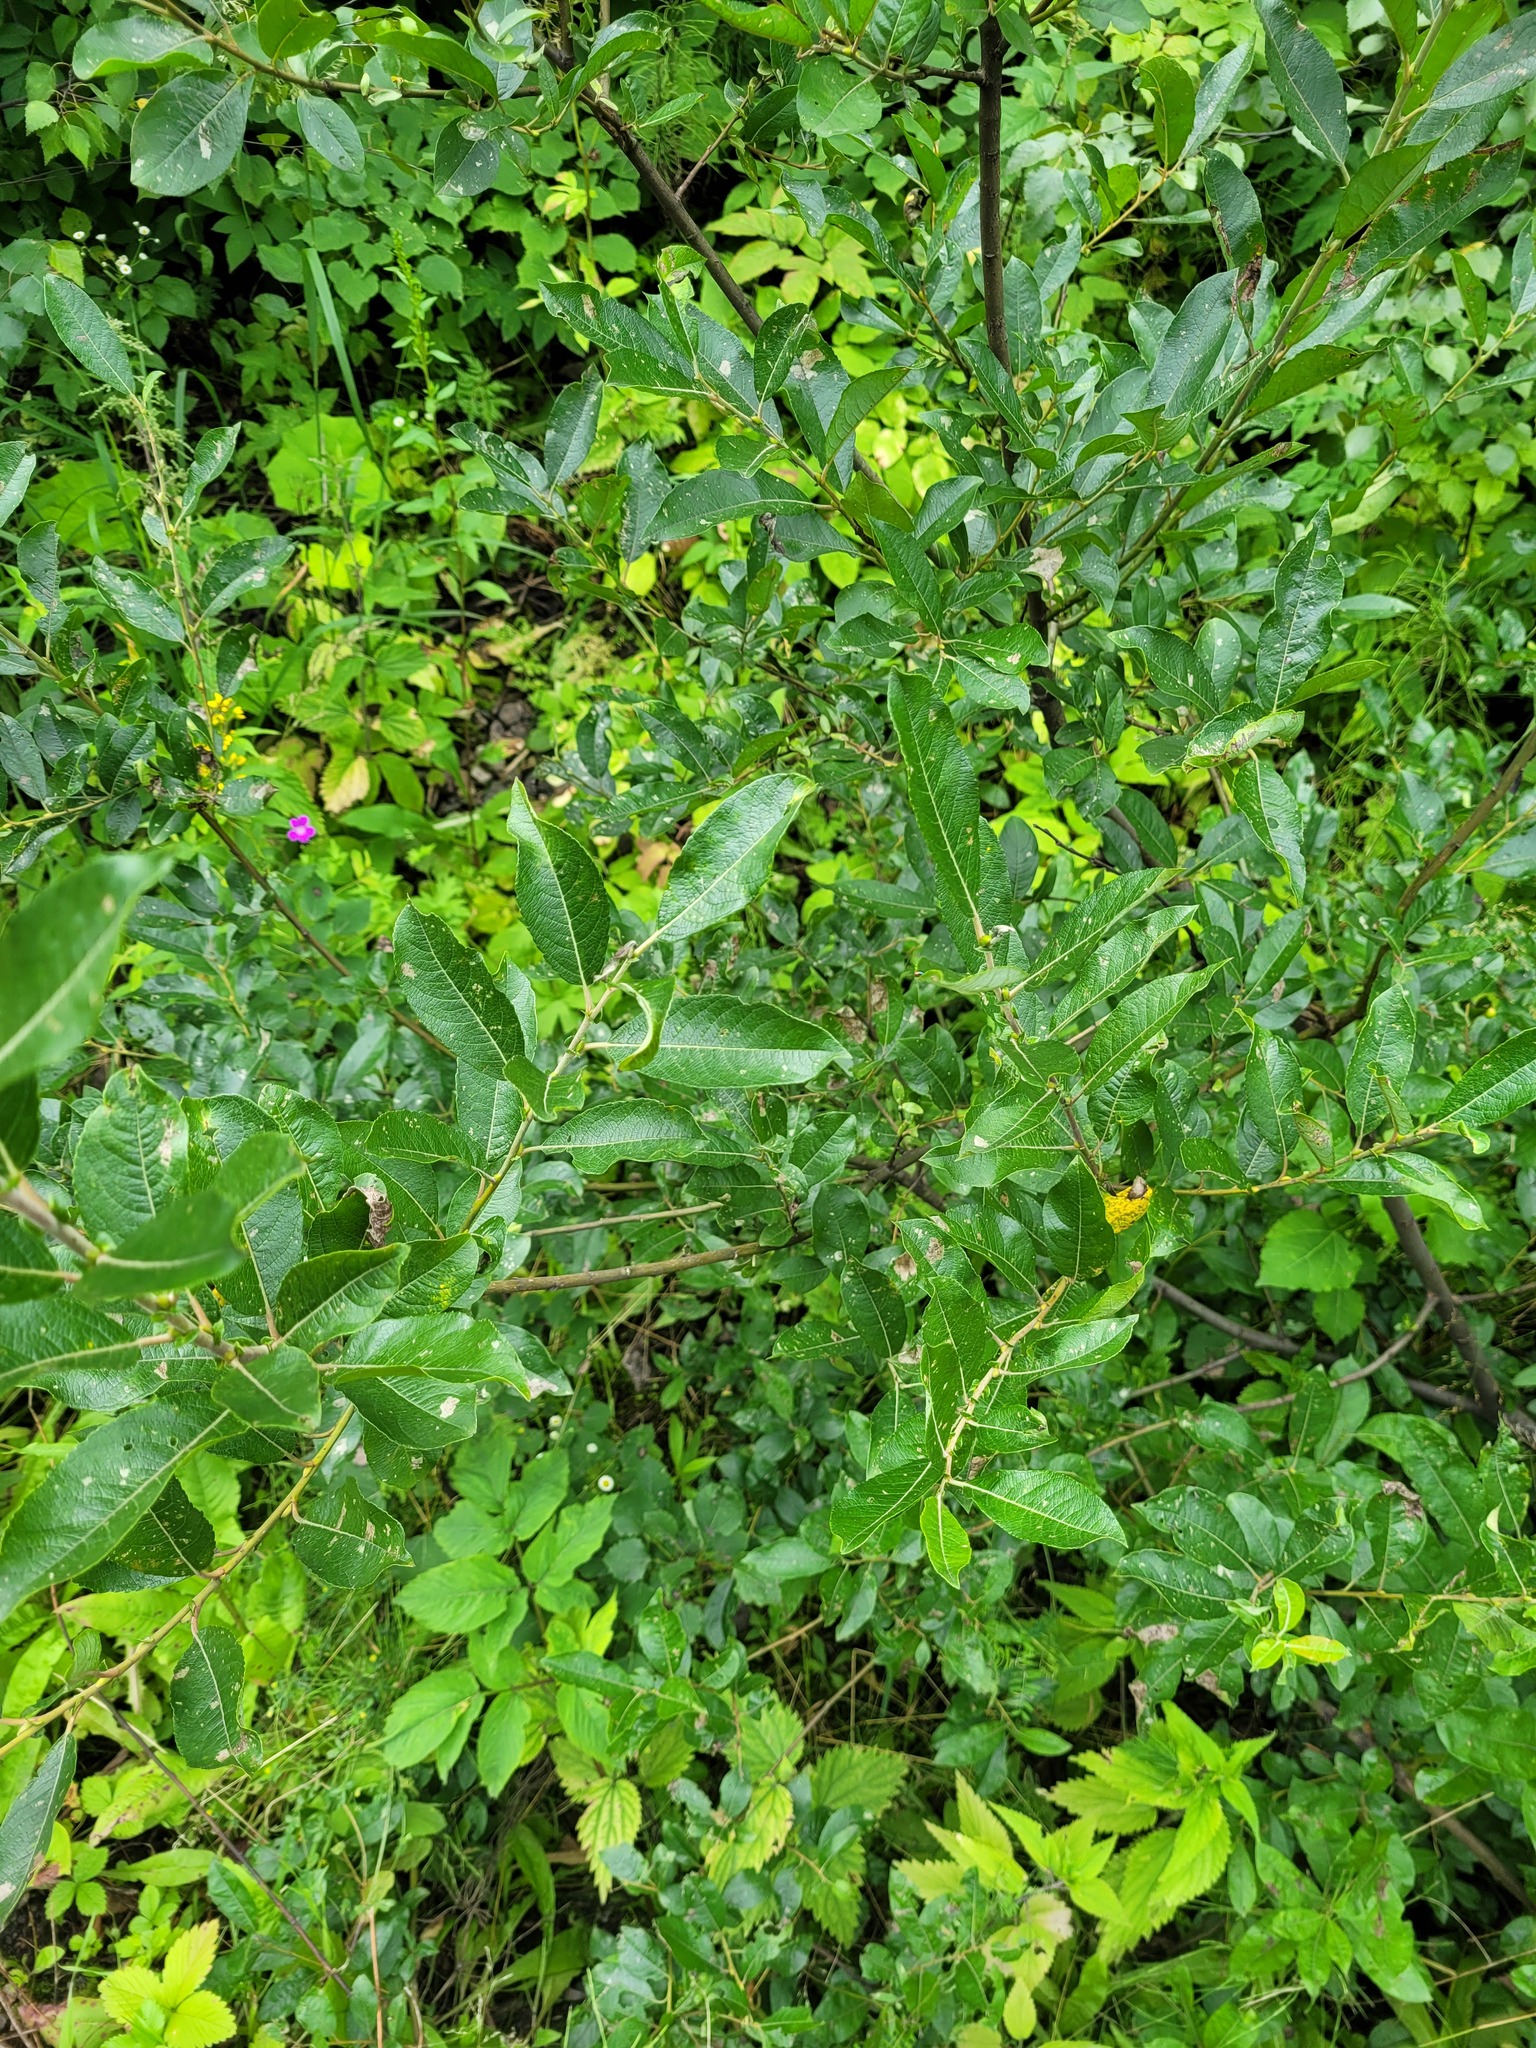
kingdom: Plantae
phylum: Tracheophyta
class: Magnoliopsida
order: Malpighiales
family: Salicaceae
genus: Salix
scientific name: Salix myrsinifolia
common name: Dark-leaved willow
